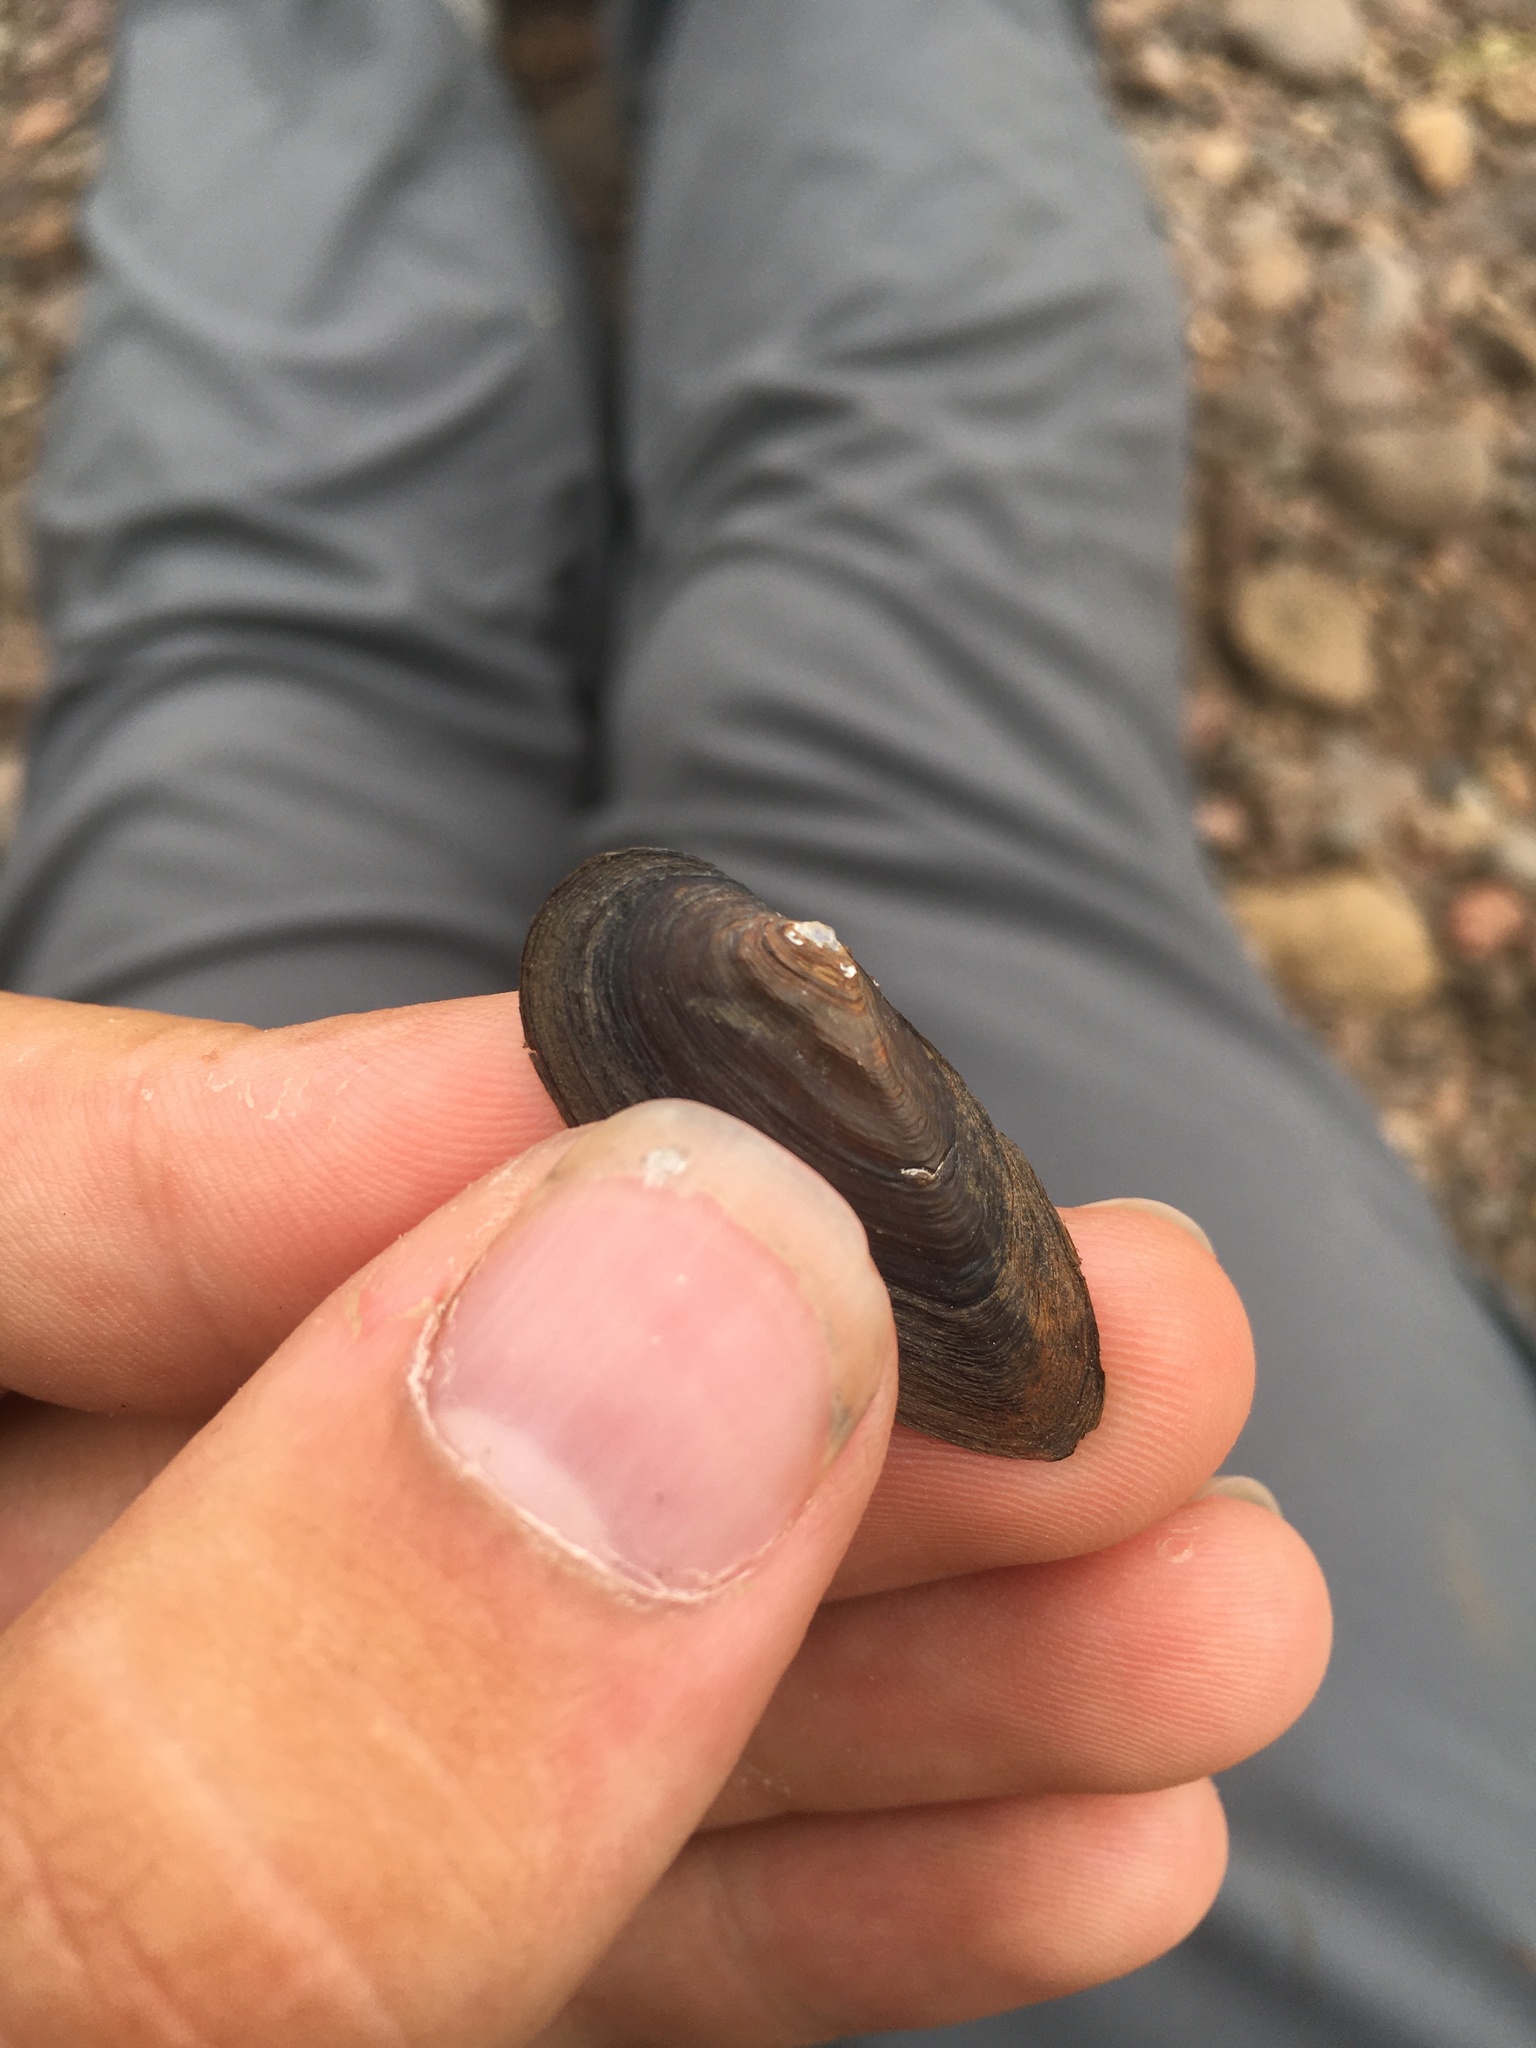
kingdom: Animalia
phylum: Mollusca
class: Bivalvia
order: Unionida
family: Unionidae
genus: Eurynia
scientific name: Eurynia dilatata
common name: Spike
